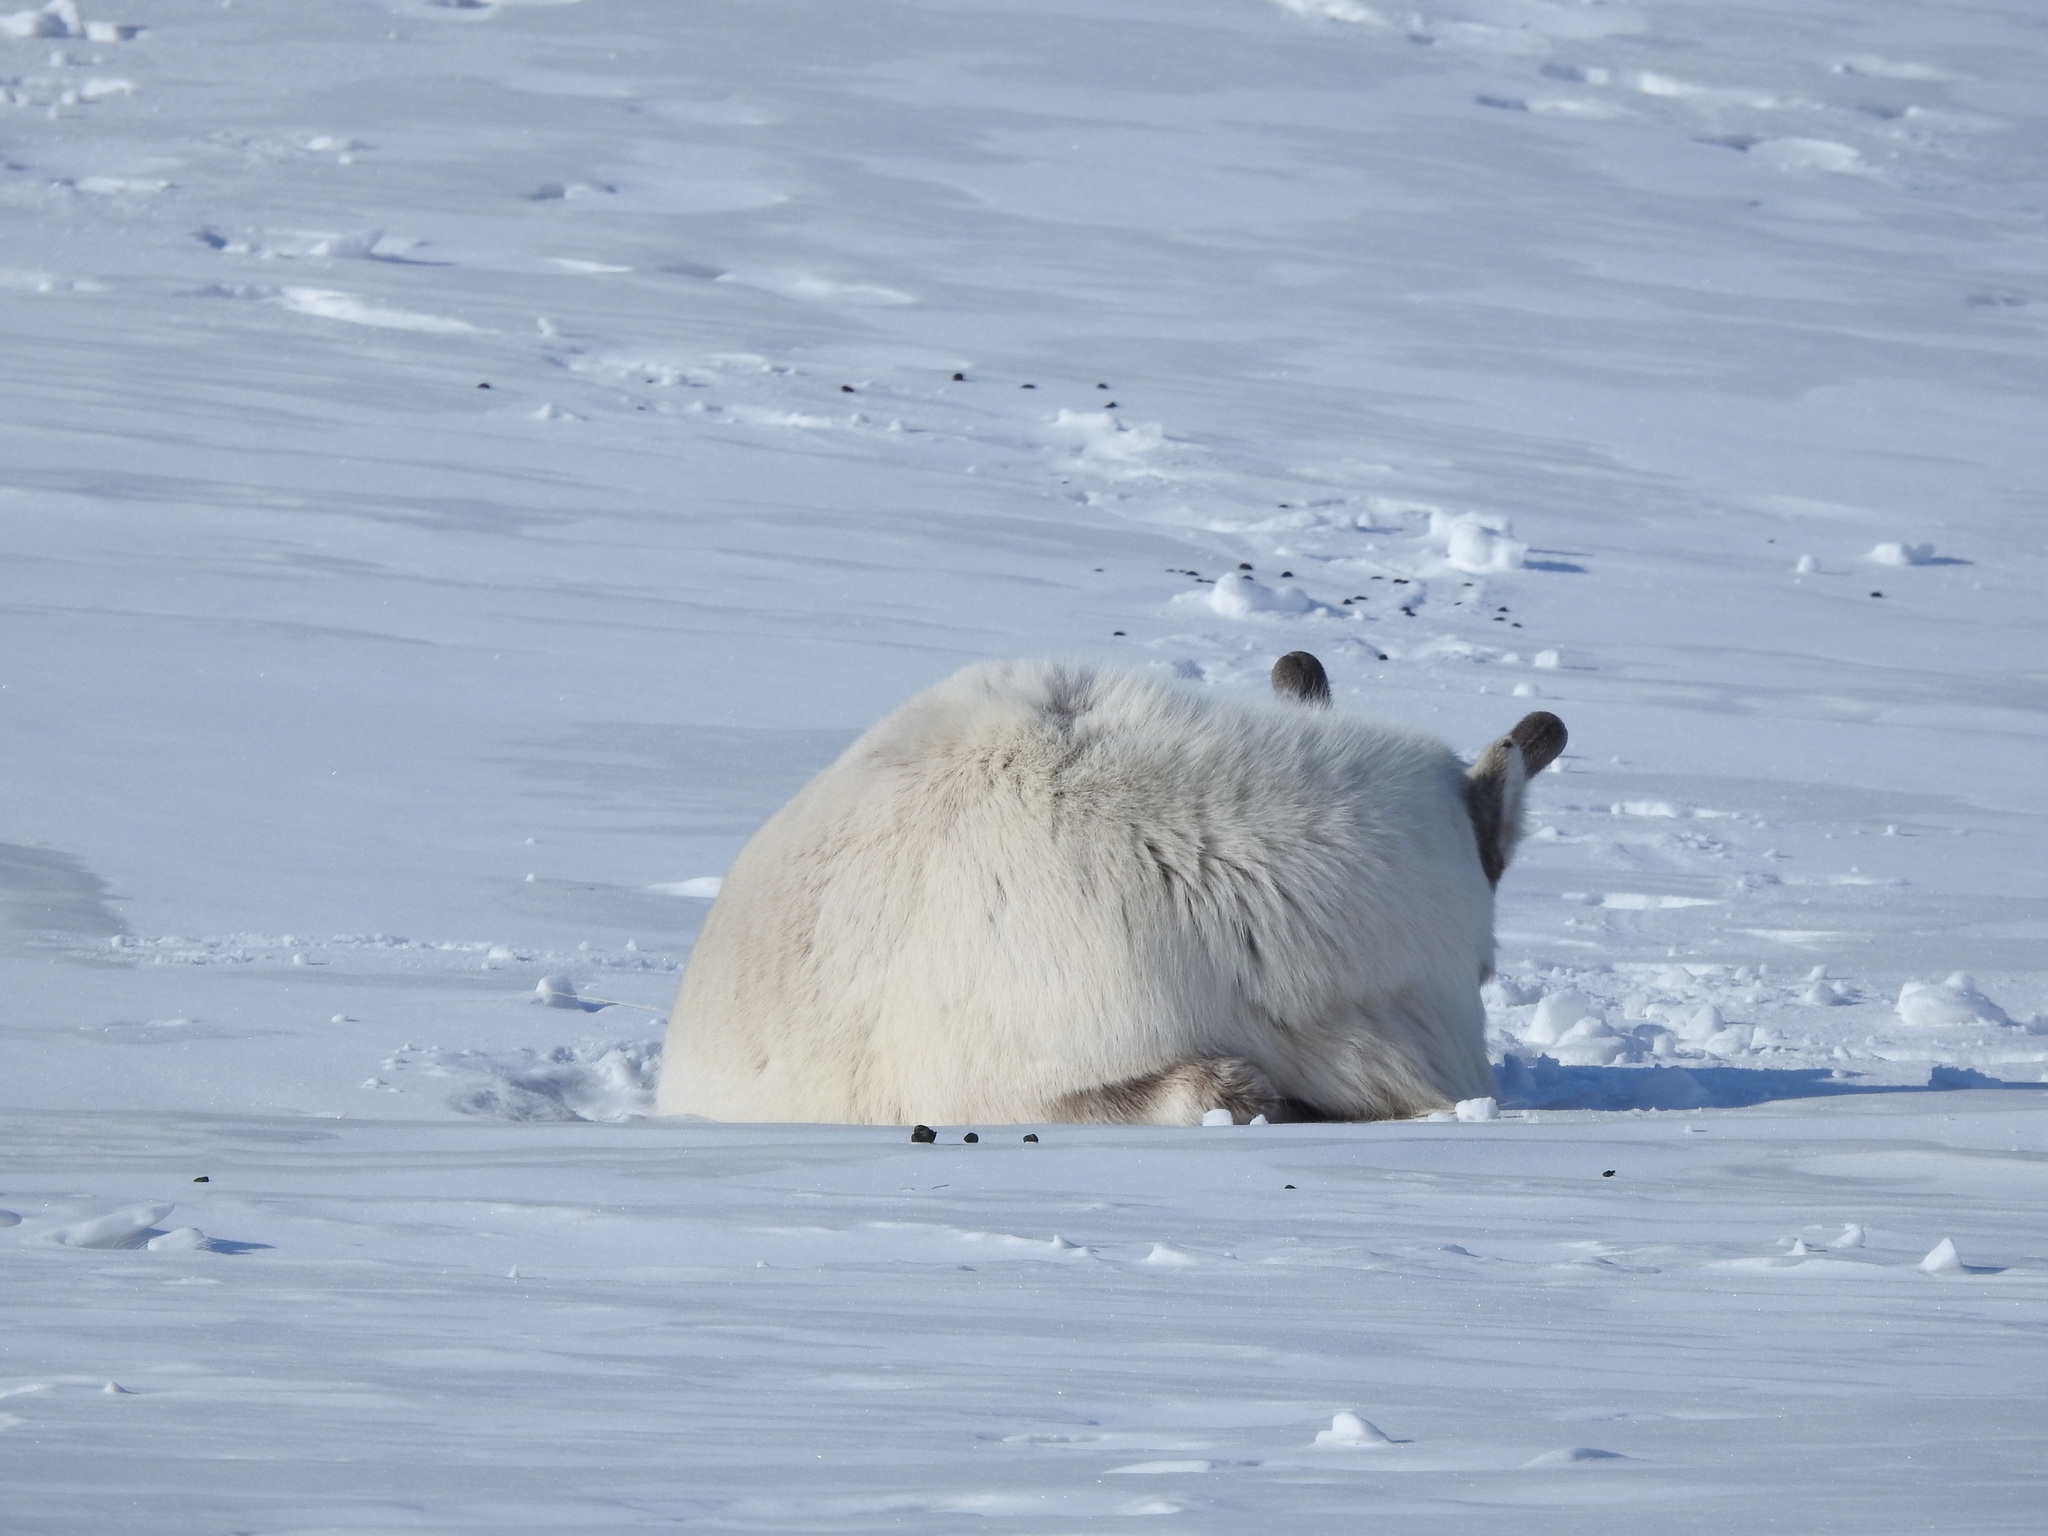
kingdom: Animalia
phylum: Chordata
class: Mammalia
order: Artiodactyla
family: Cervidae
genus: Rangifer
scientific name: Rangifer tarandus
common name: Reindeer
